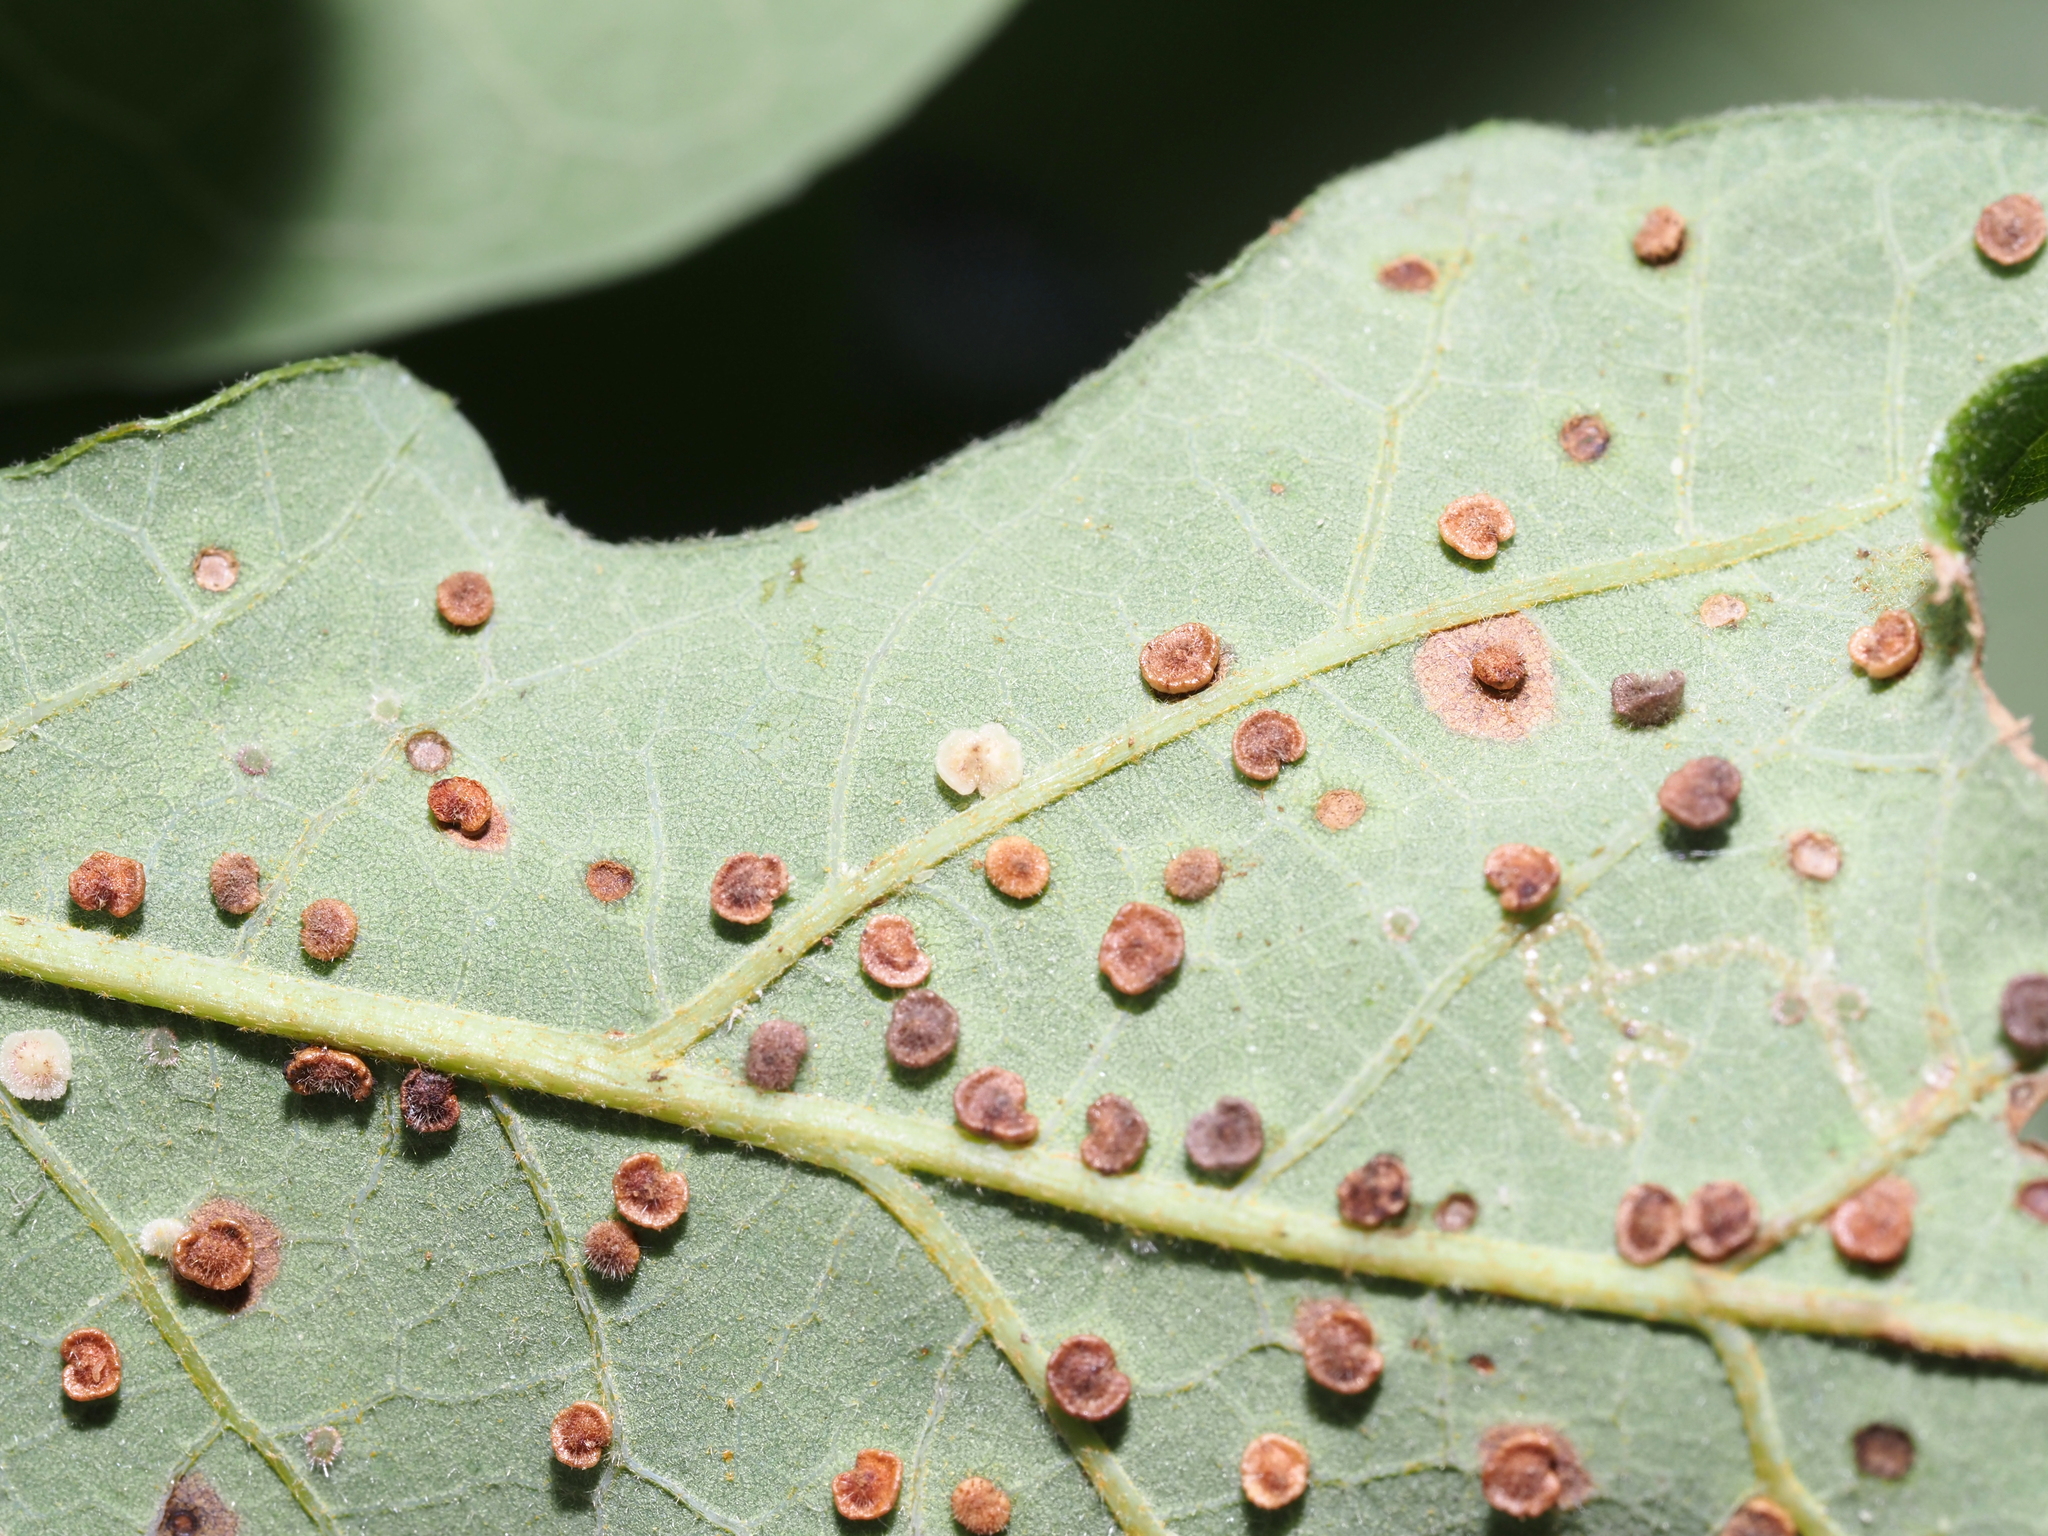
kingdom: Animalia
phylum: Arthropoda
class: Insecta
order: Hymenoptera
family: Cynipidae
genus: Neuroterus
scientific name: Neuroterus
